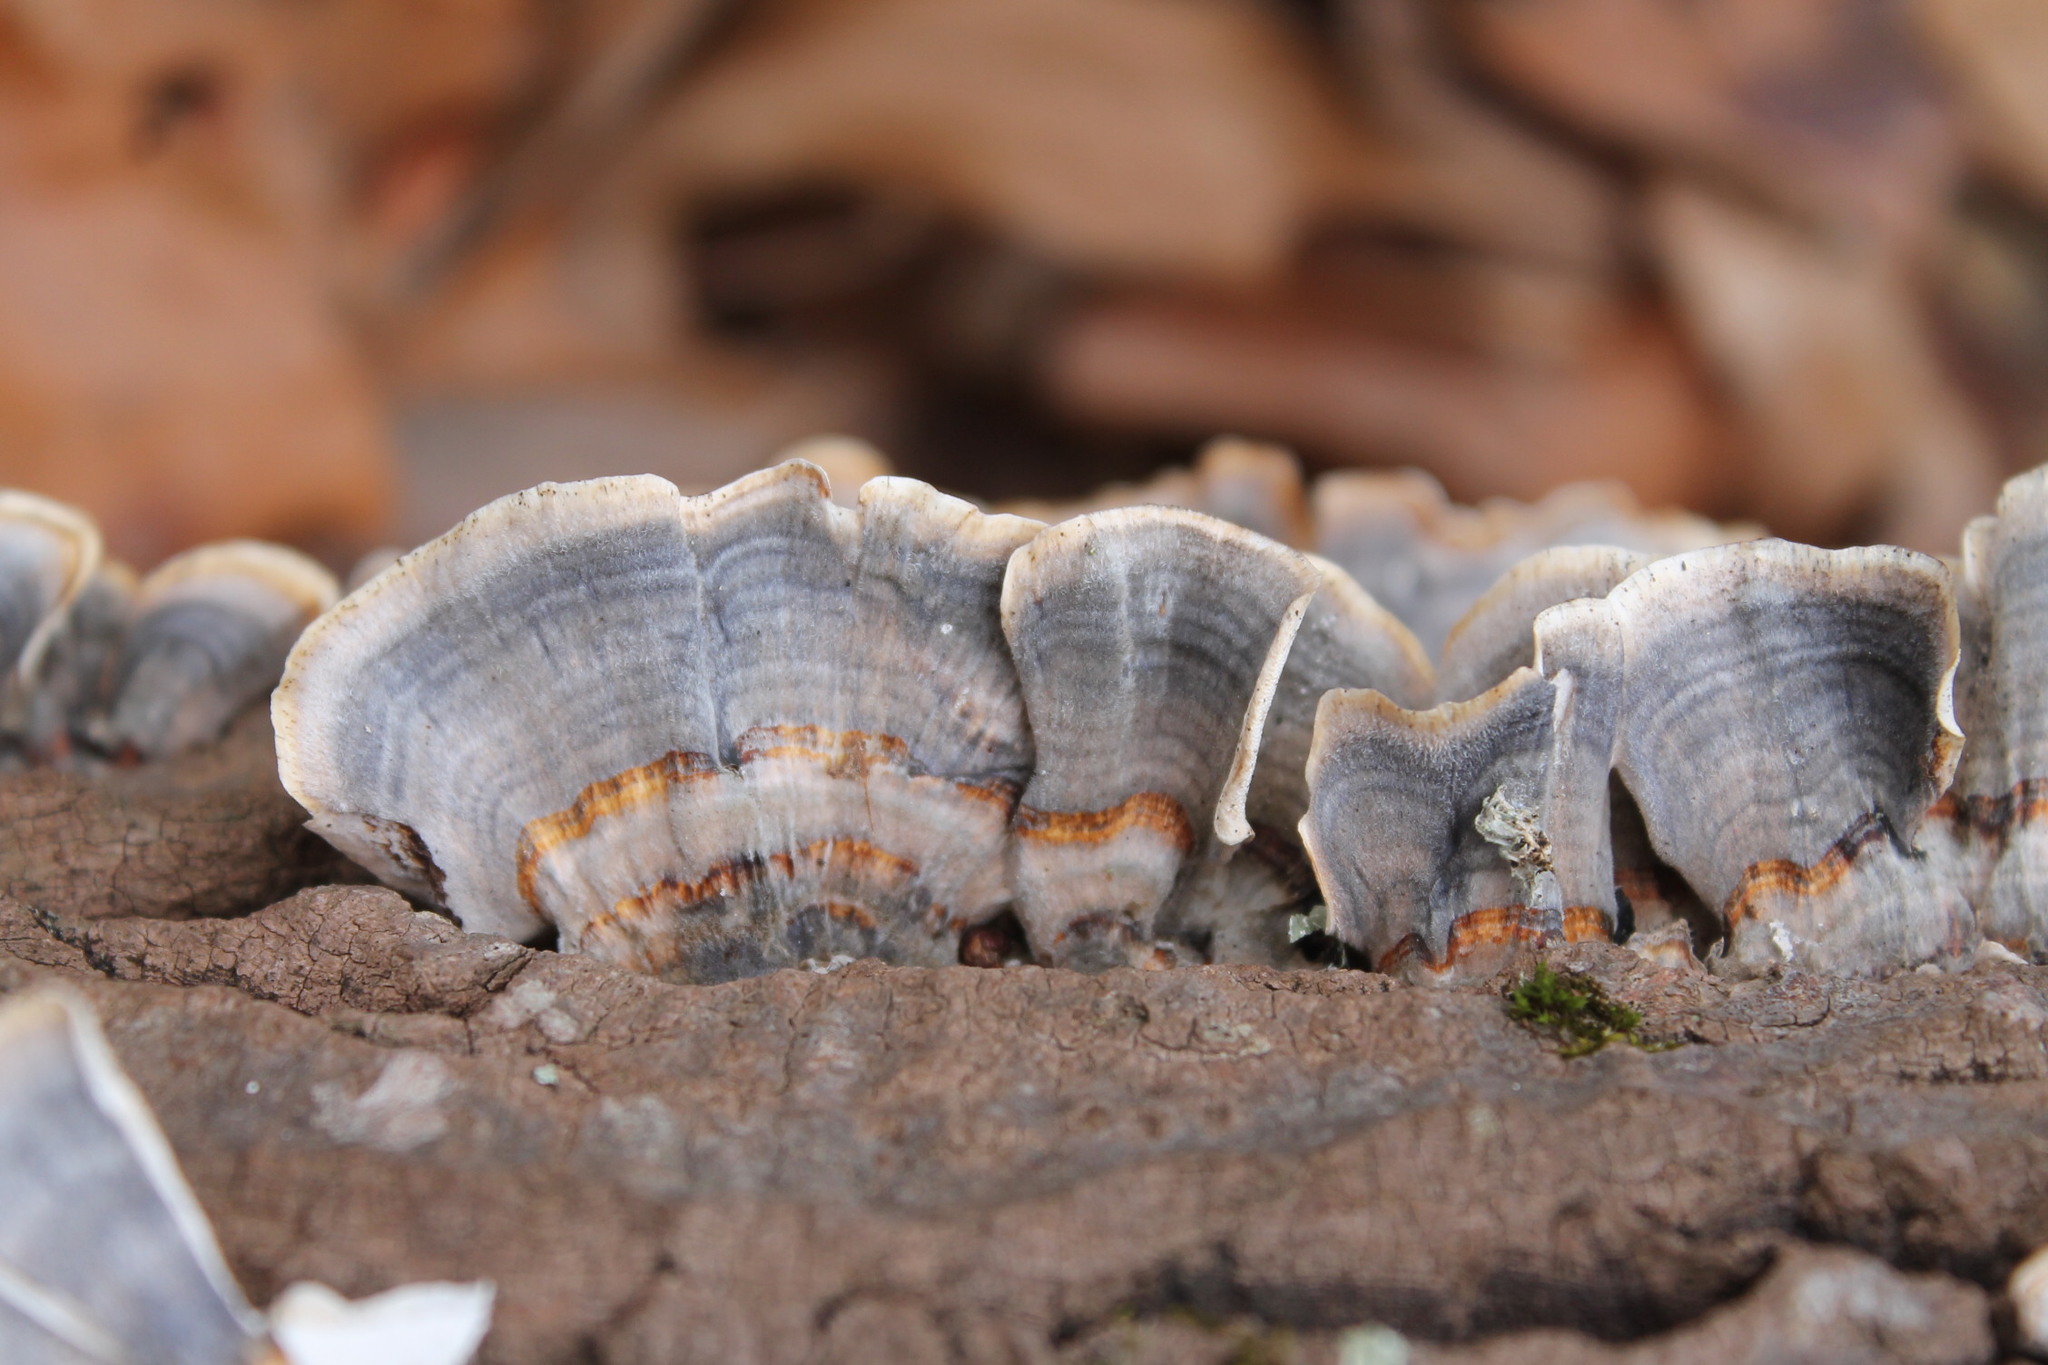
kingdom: Fungi
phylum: Basidiomycota
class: Agaricomycetes
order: Polyporales
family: Polyporaceae
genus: Trametes
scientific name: Trametes versicolor
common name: Turkeytail
